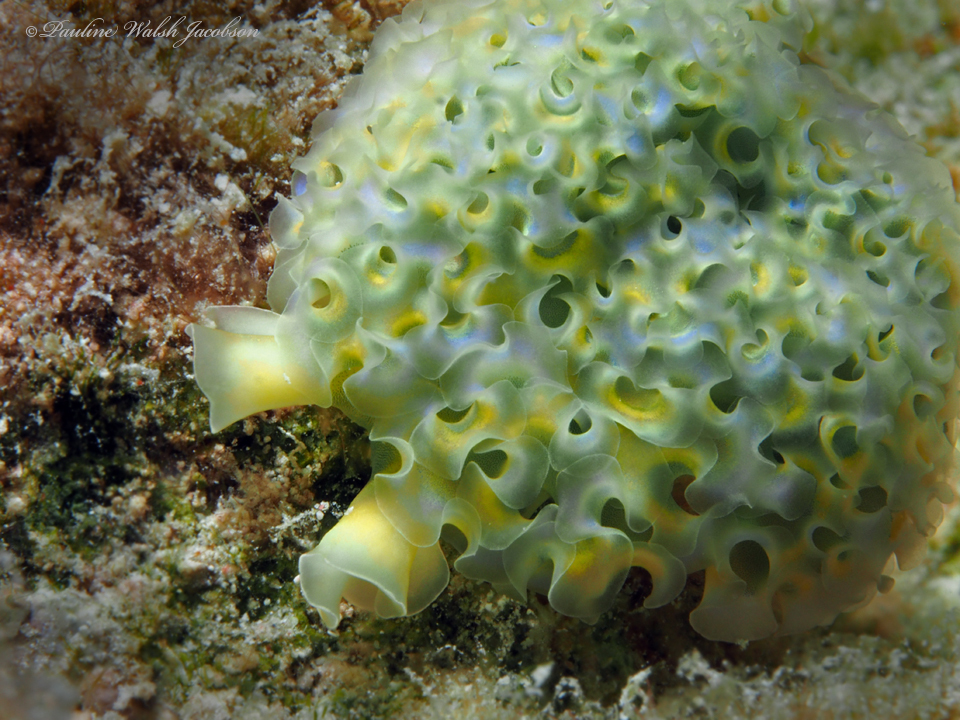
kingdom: Animalia
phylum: Mollusca
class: Gastropoda
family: Plakobranchidae
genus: Elysia
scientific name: Elysia crispata
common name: Lettuce slug
